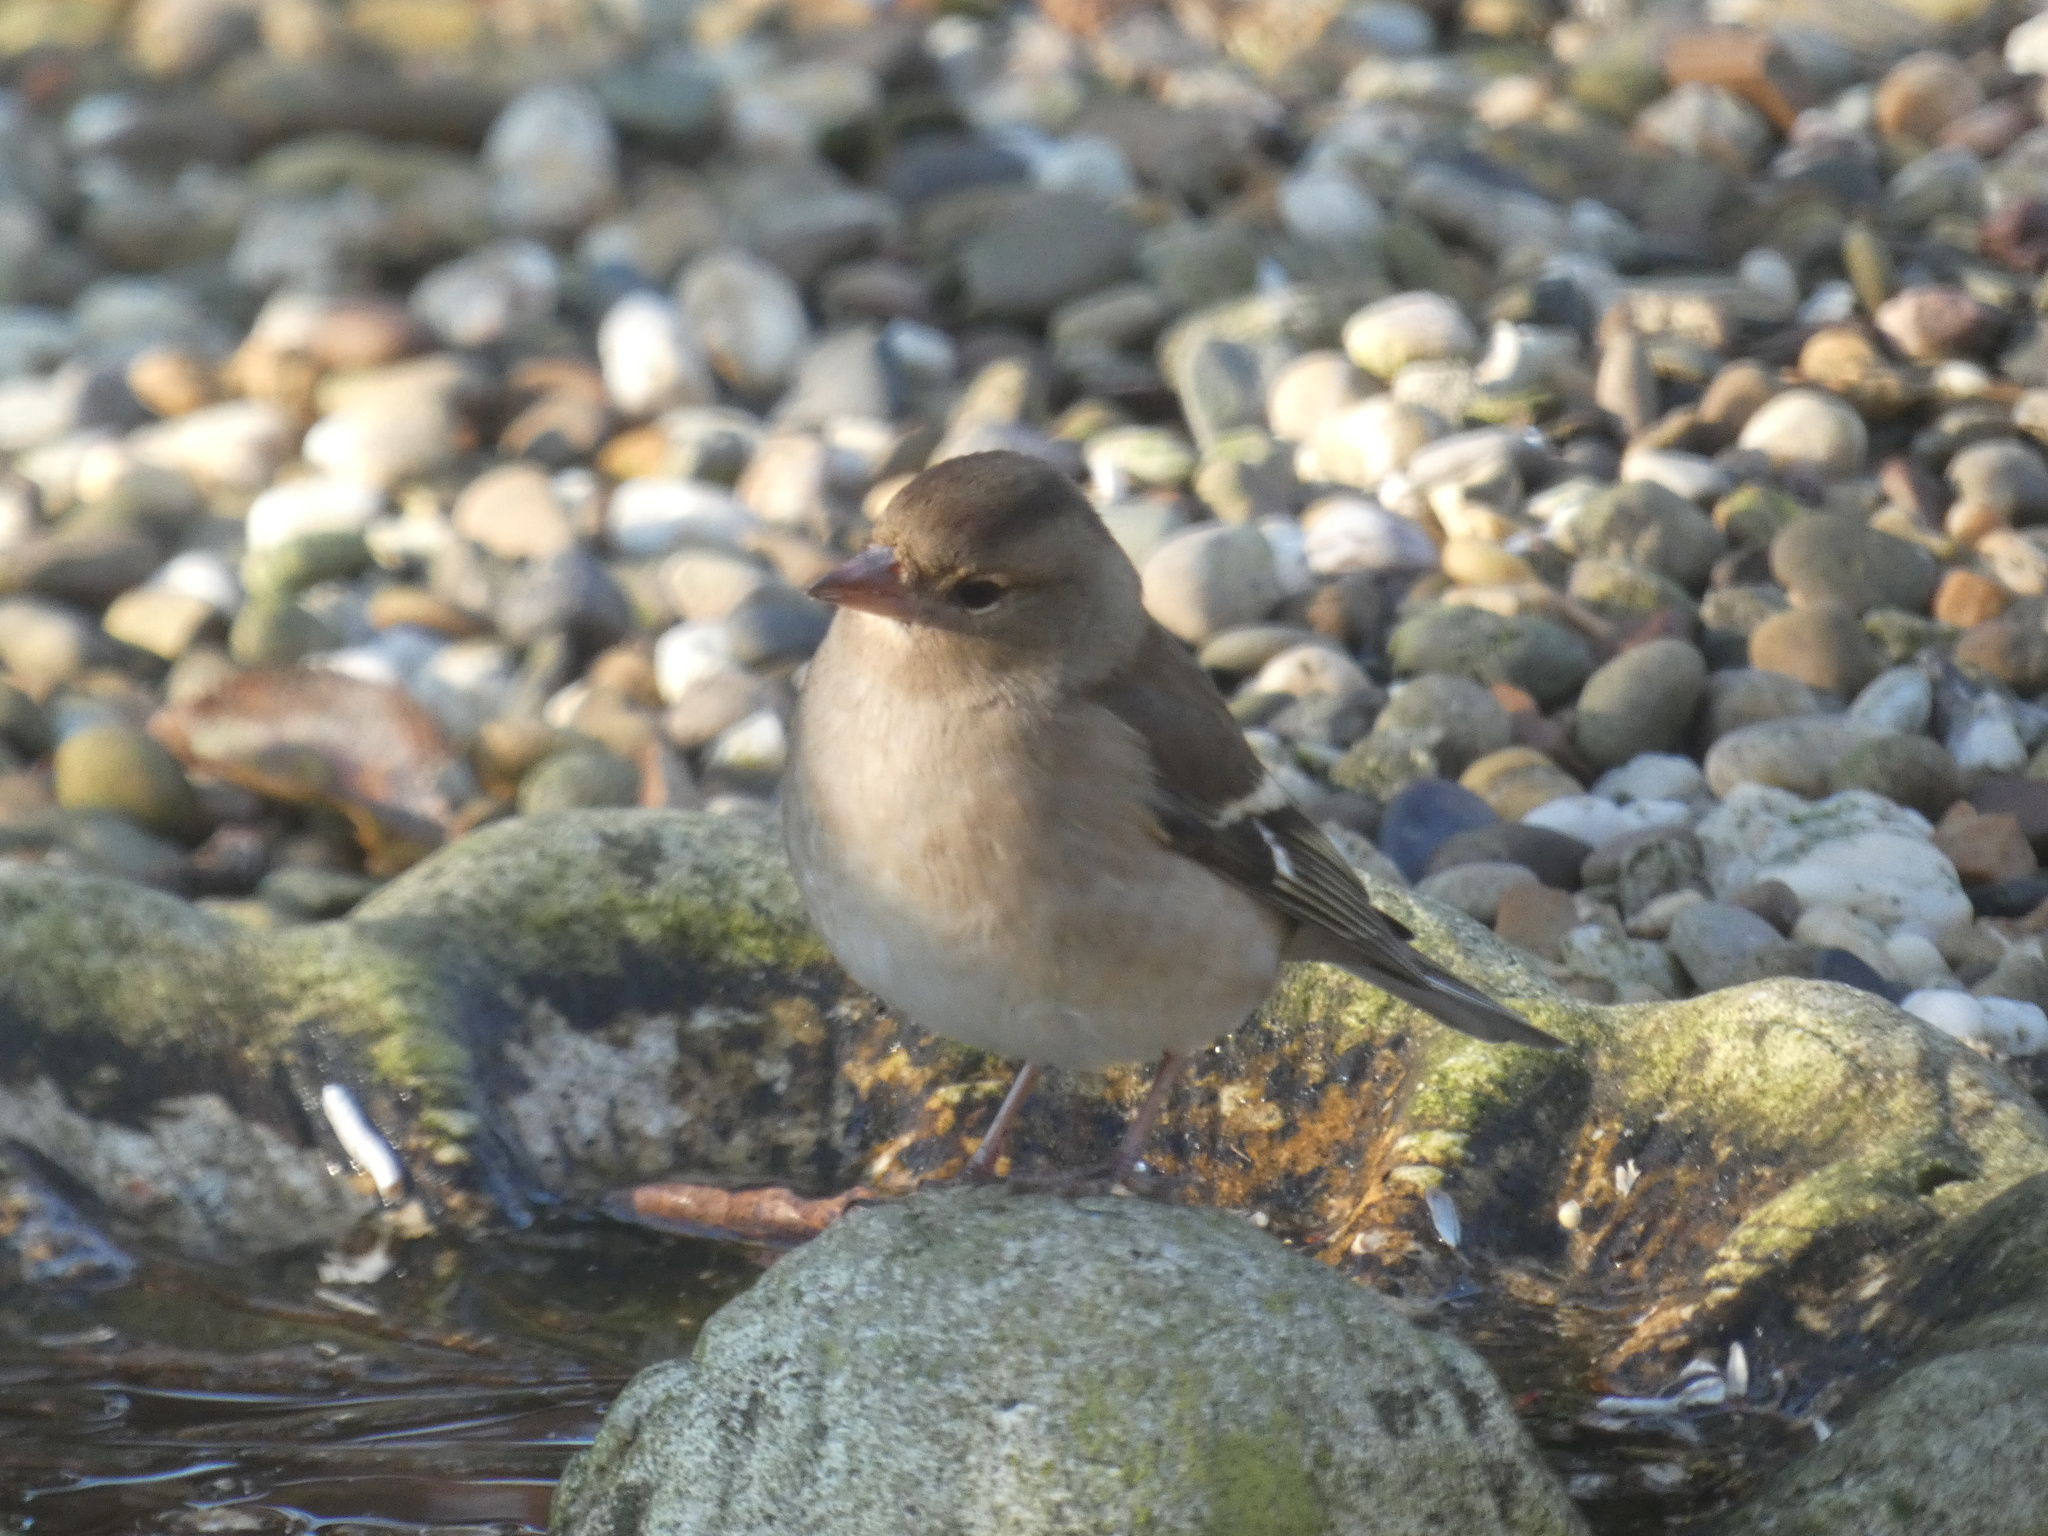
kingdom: Animalia
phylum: Chordata
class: Aves
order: Passeriformes
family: Fringillidae
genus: Fringilla
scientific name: Fringilla coelebs
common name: Common chaffinch
